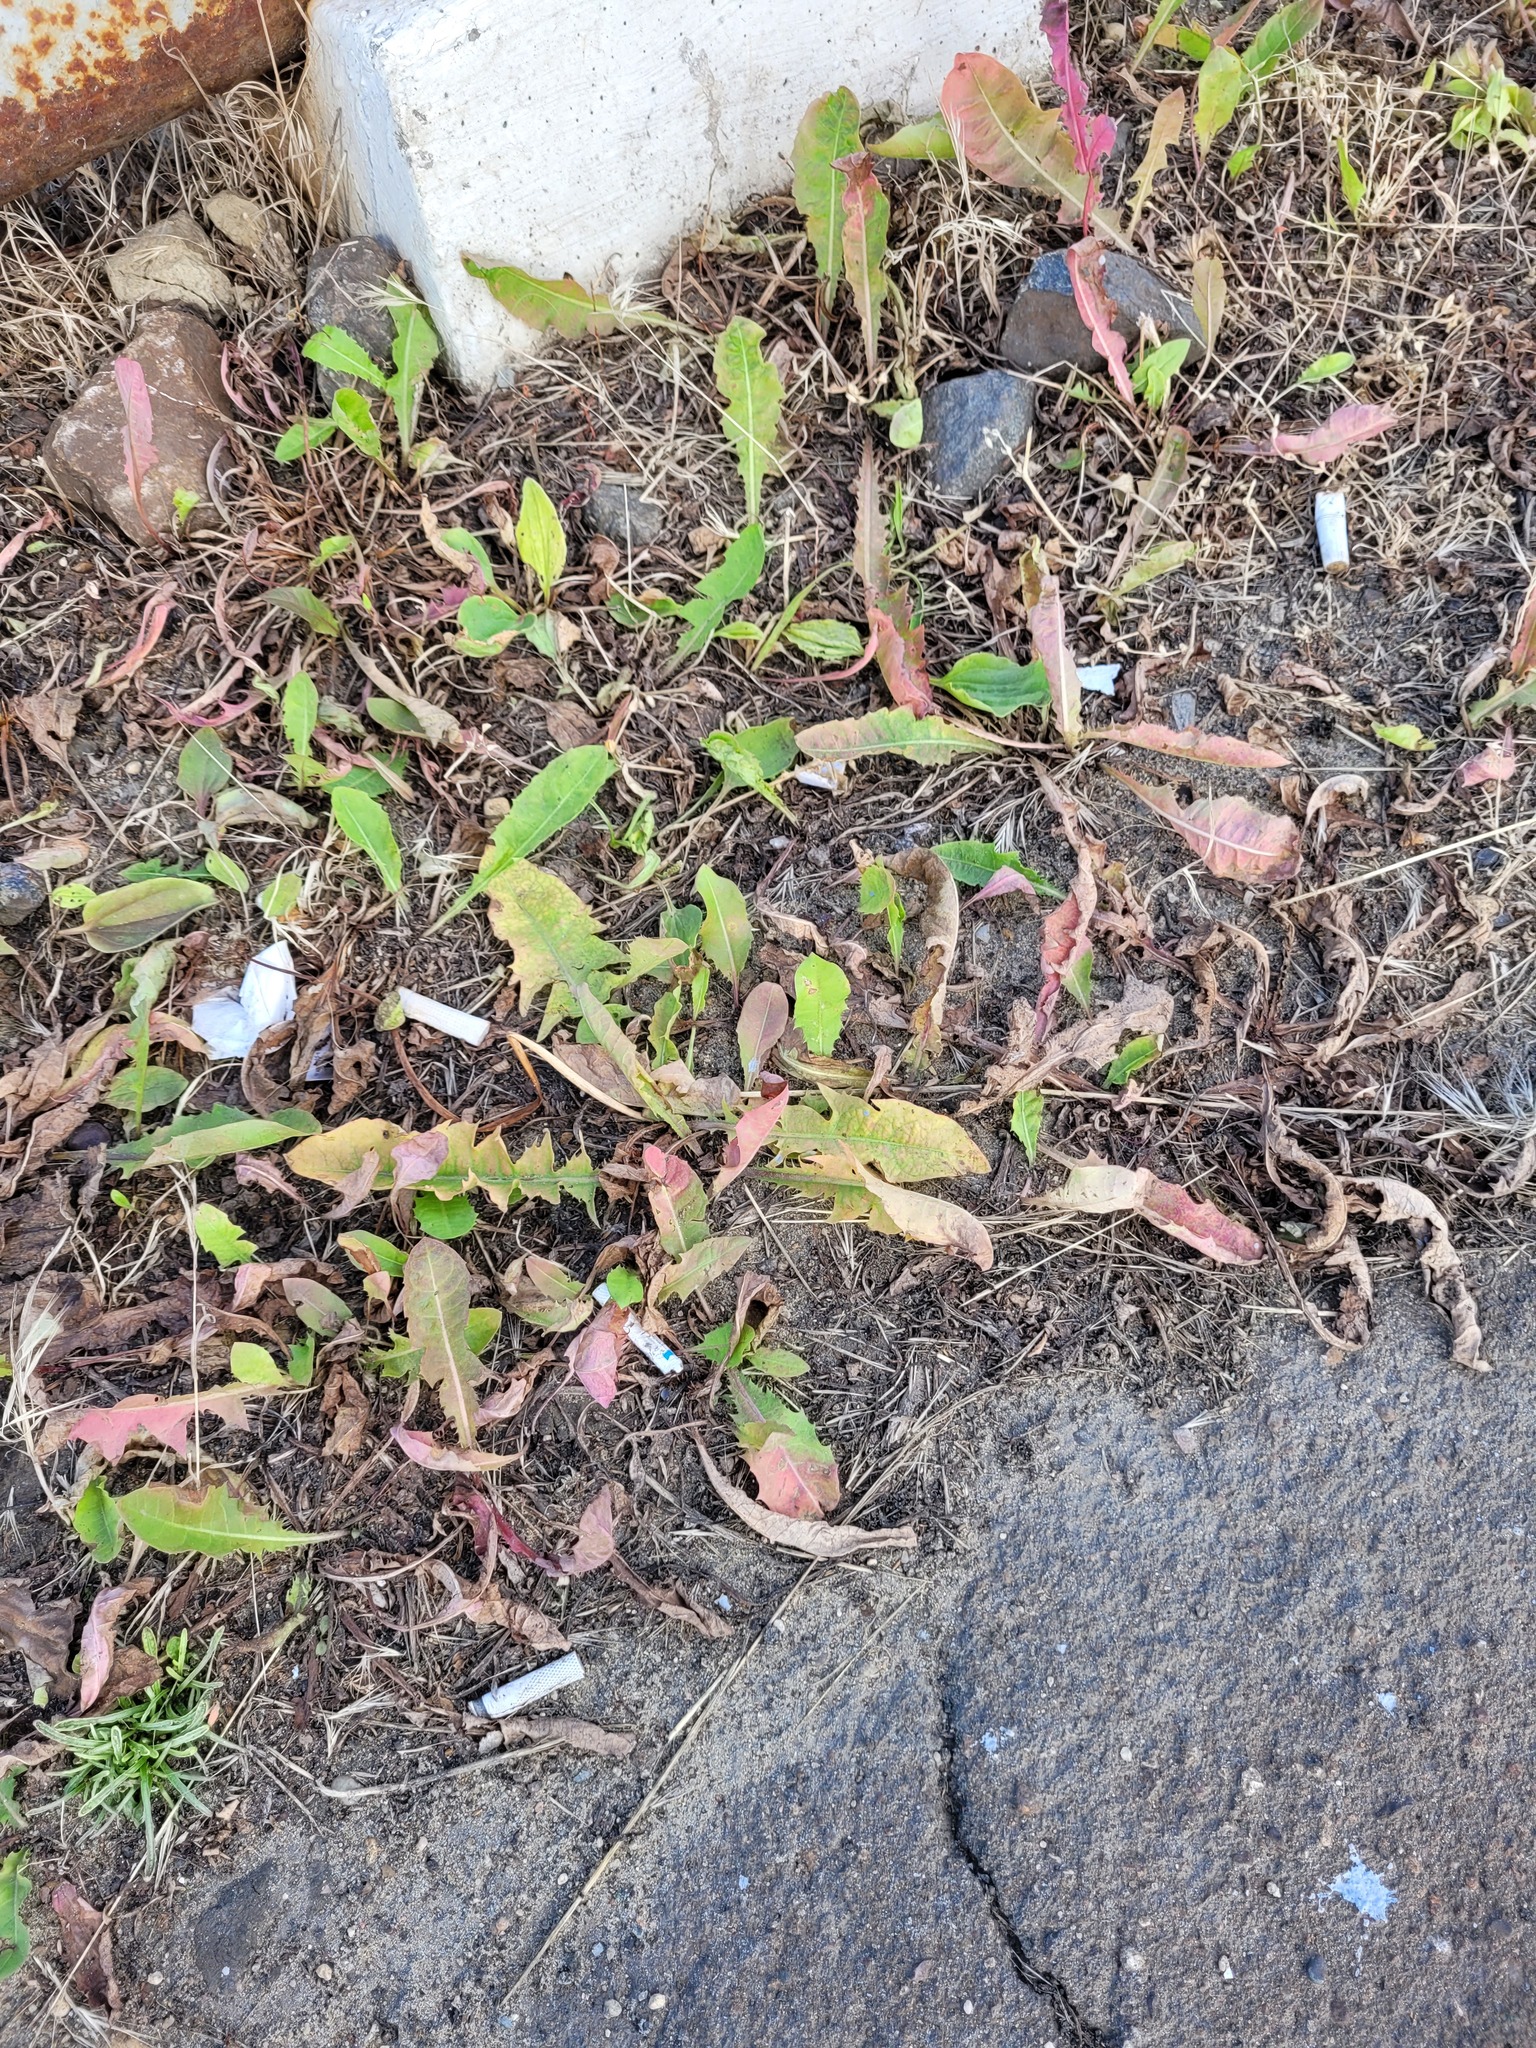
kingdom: Plantae
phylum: Tracheophyta
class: Magnoliopsida
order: Asterales
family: Asteraceae
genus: Taraxacum
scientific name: Taraxacum officinale
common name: Common dandelion
